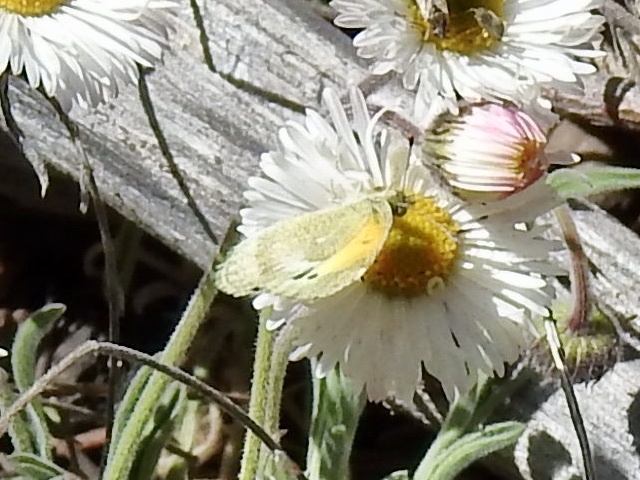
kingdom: Animalia
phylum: Arthropoda
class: Insecta
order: Lepidoptera
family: Pieridae
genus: Nathalis
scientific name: Nathalis iole
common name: Dainty sulphur
